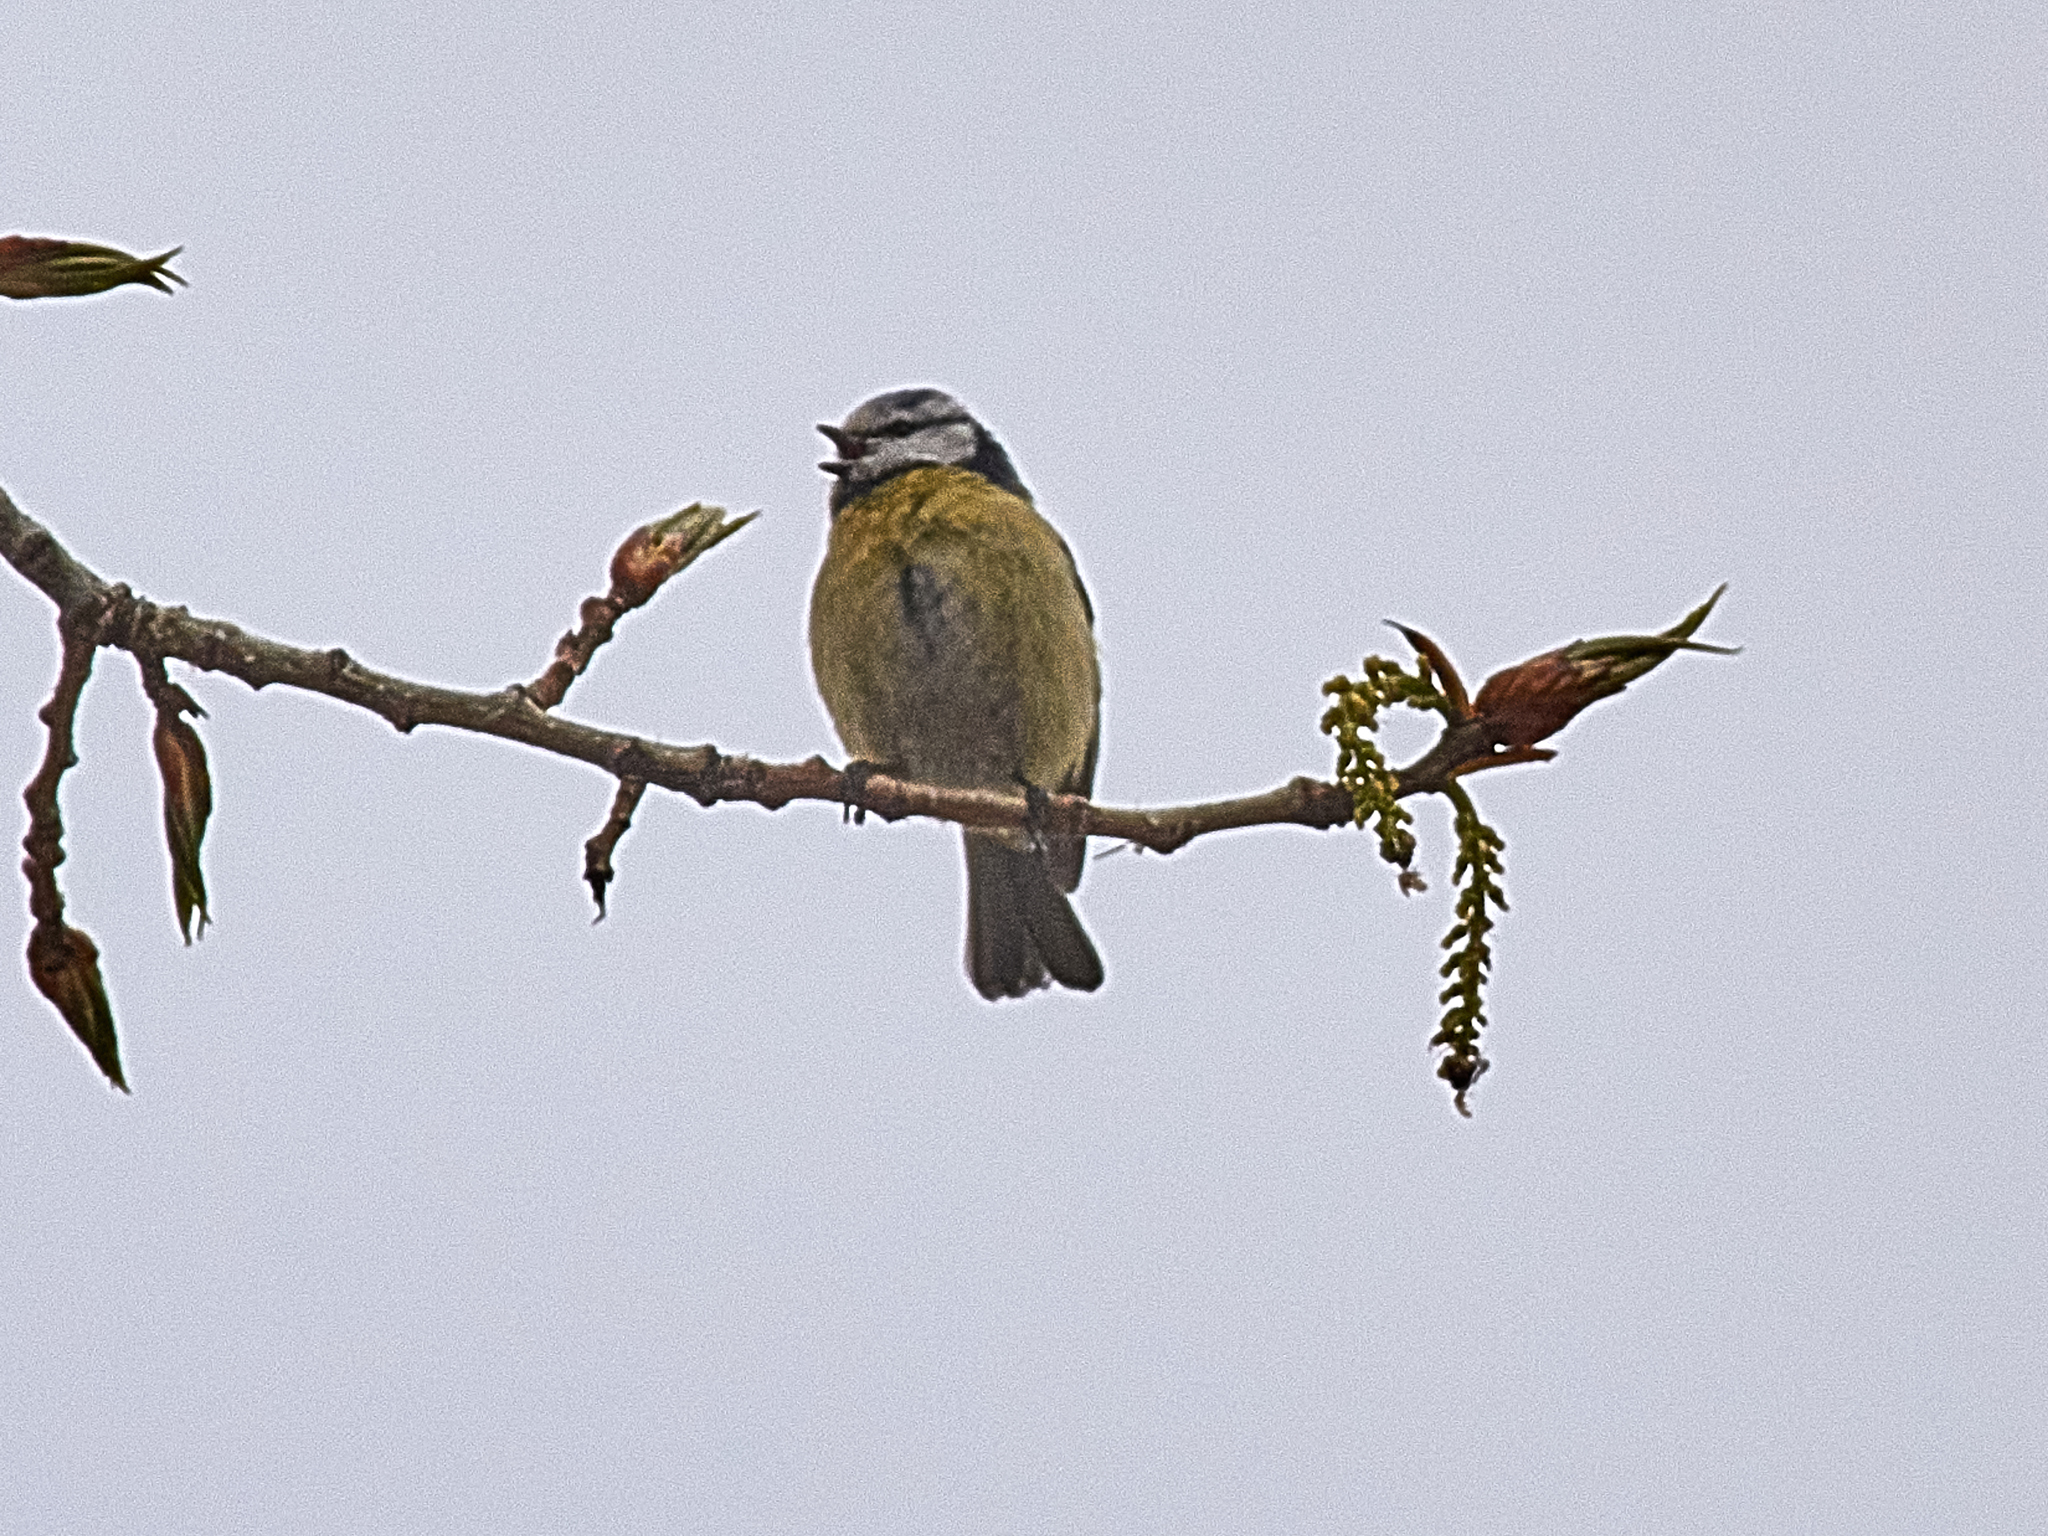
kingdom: Animalia
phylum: Chordata
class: Aves
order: Passeriformes
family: Paridae
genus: Cyanistes
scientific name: Cyanistes caeruleus
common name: Eurasian blue tit
